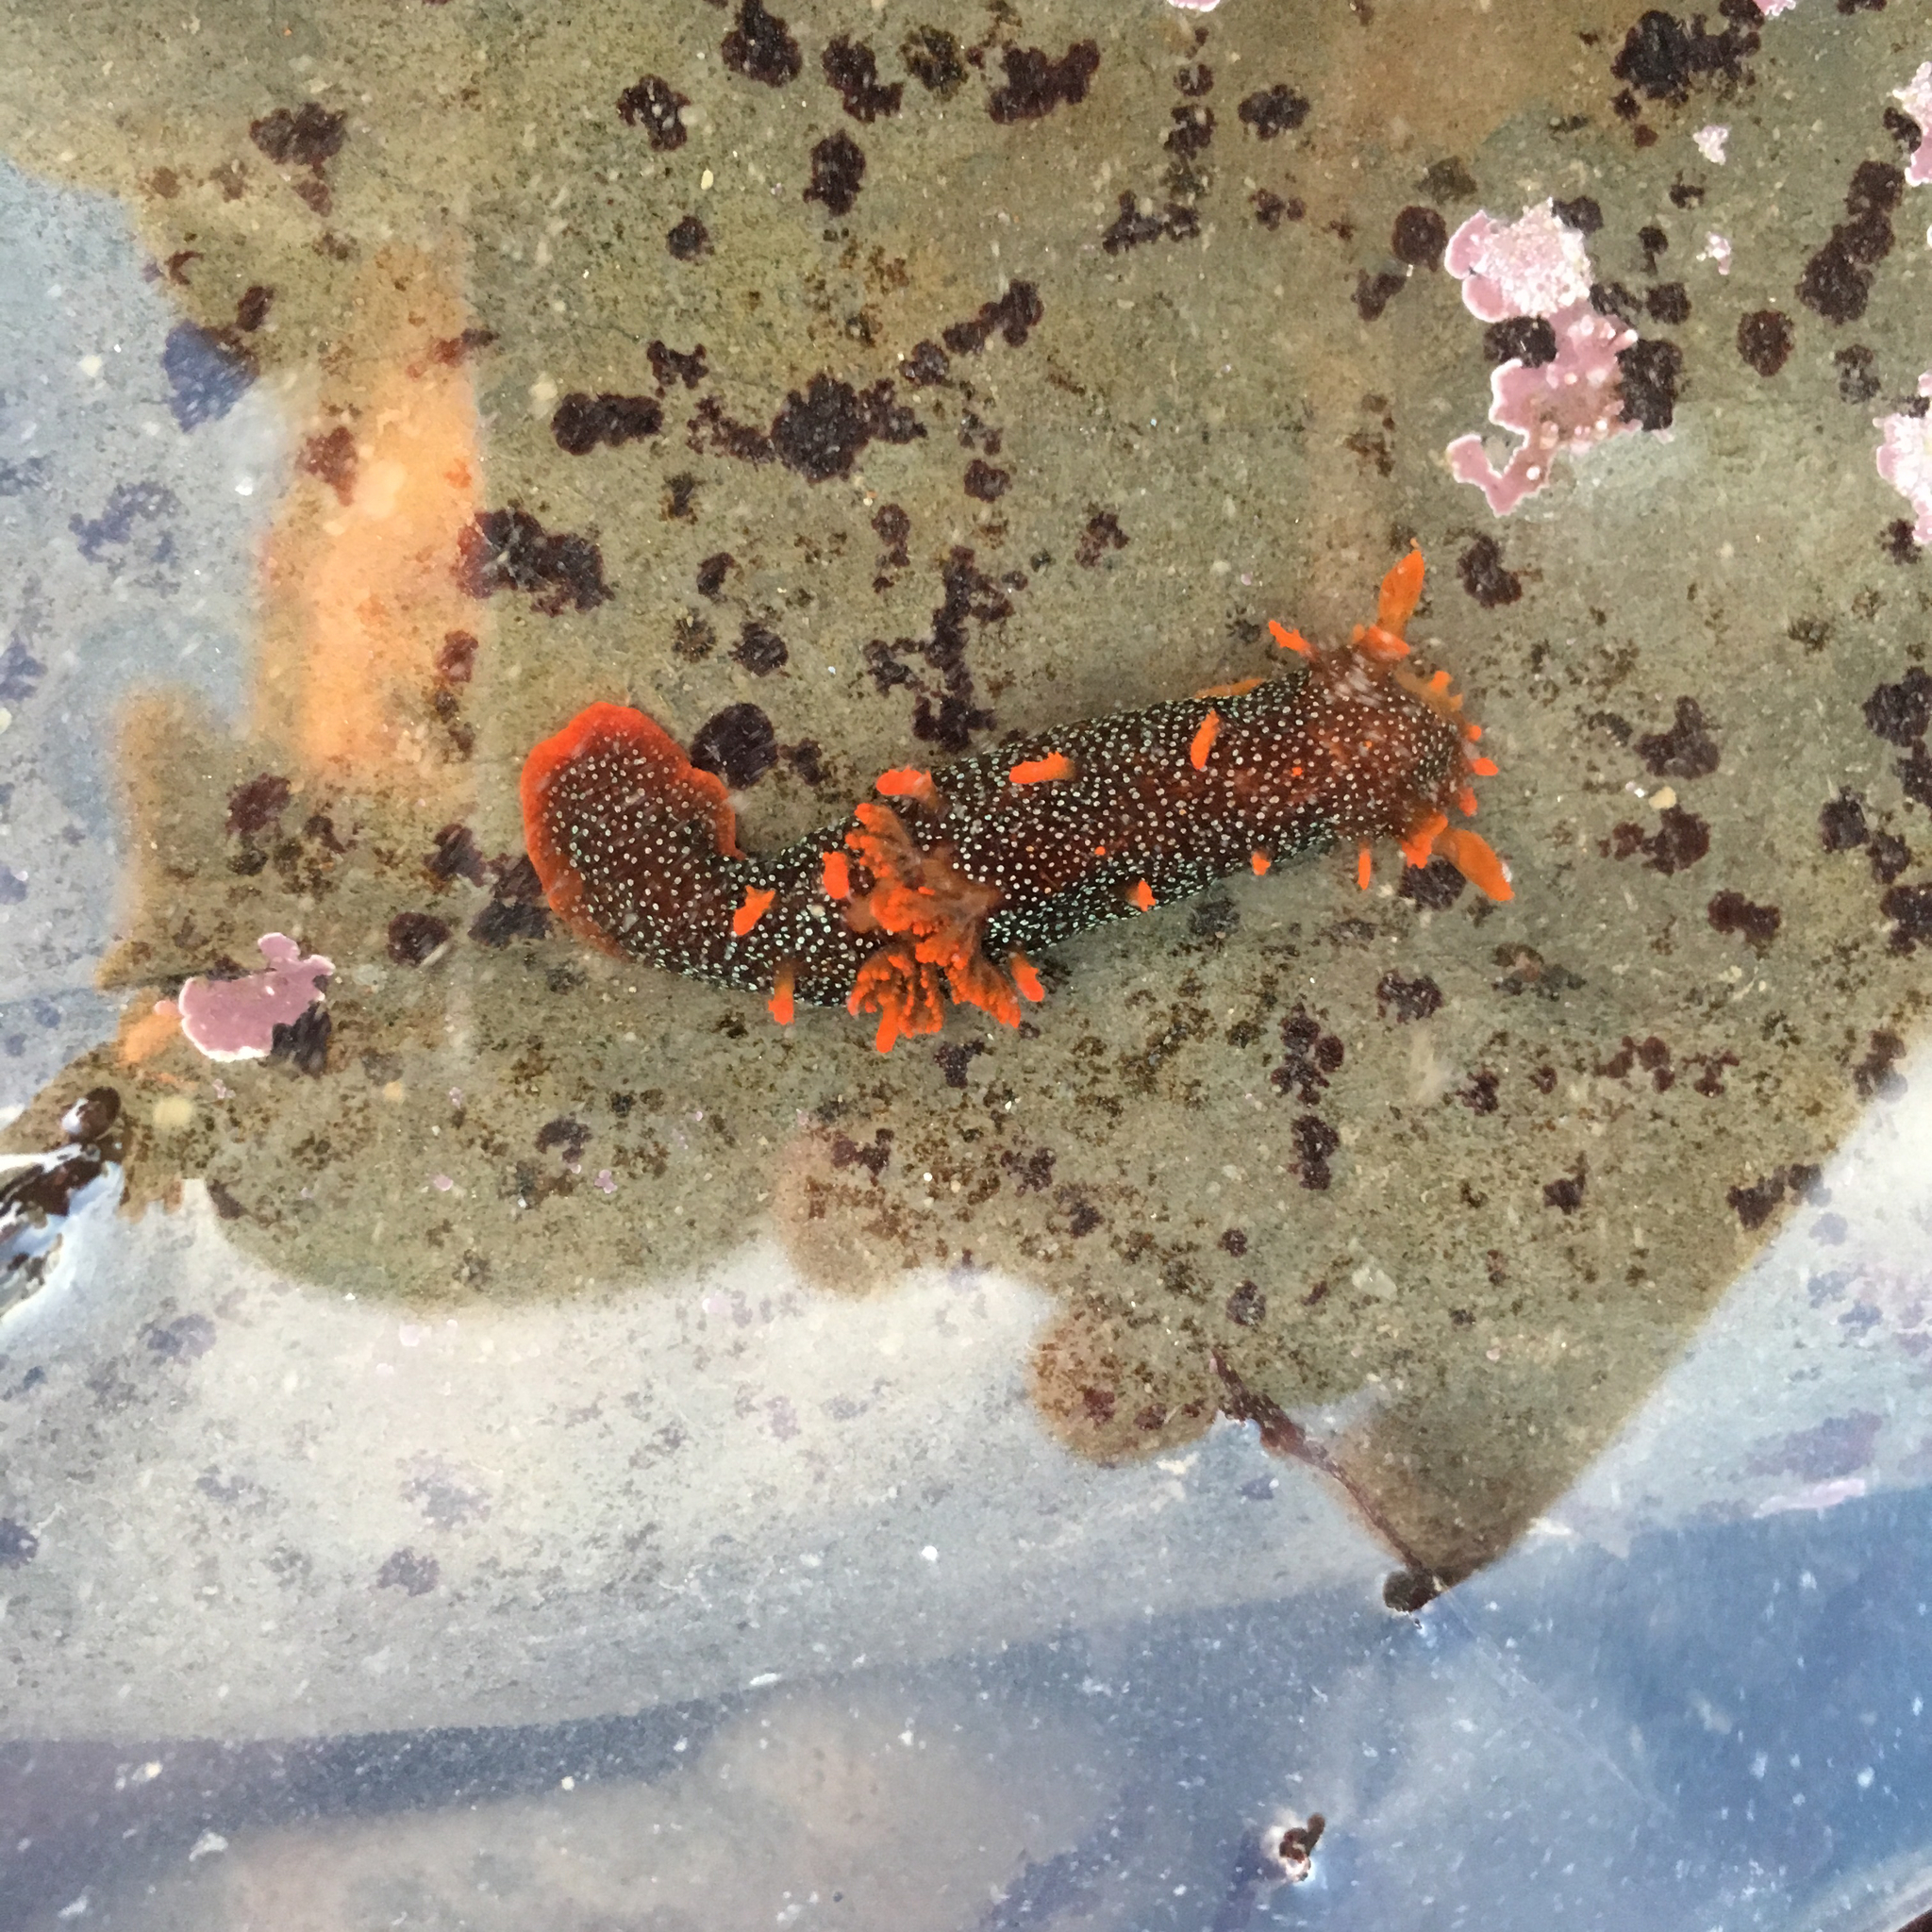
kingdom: Animalia
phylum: Mollusca
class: Gastropoda
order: Nudibranchia
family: Polyceridae
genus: Triopha
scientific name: Triopha maculata
